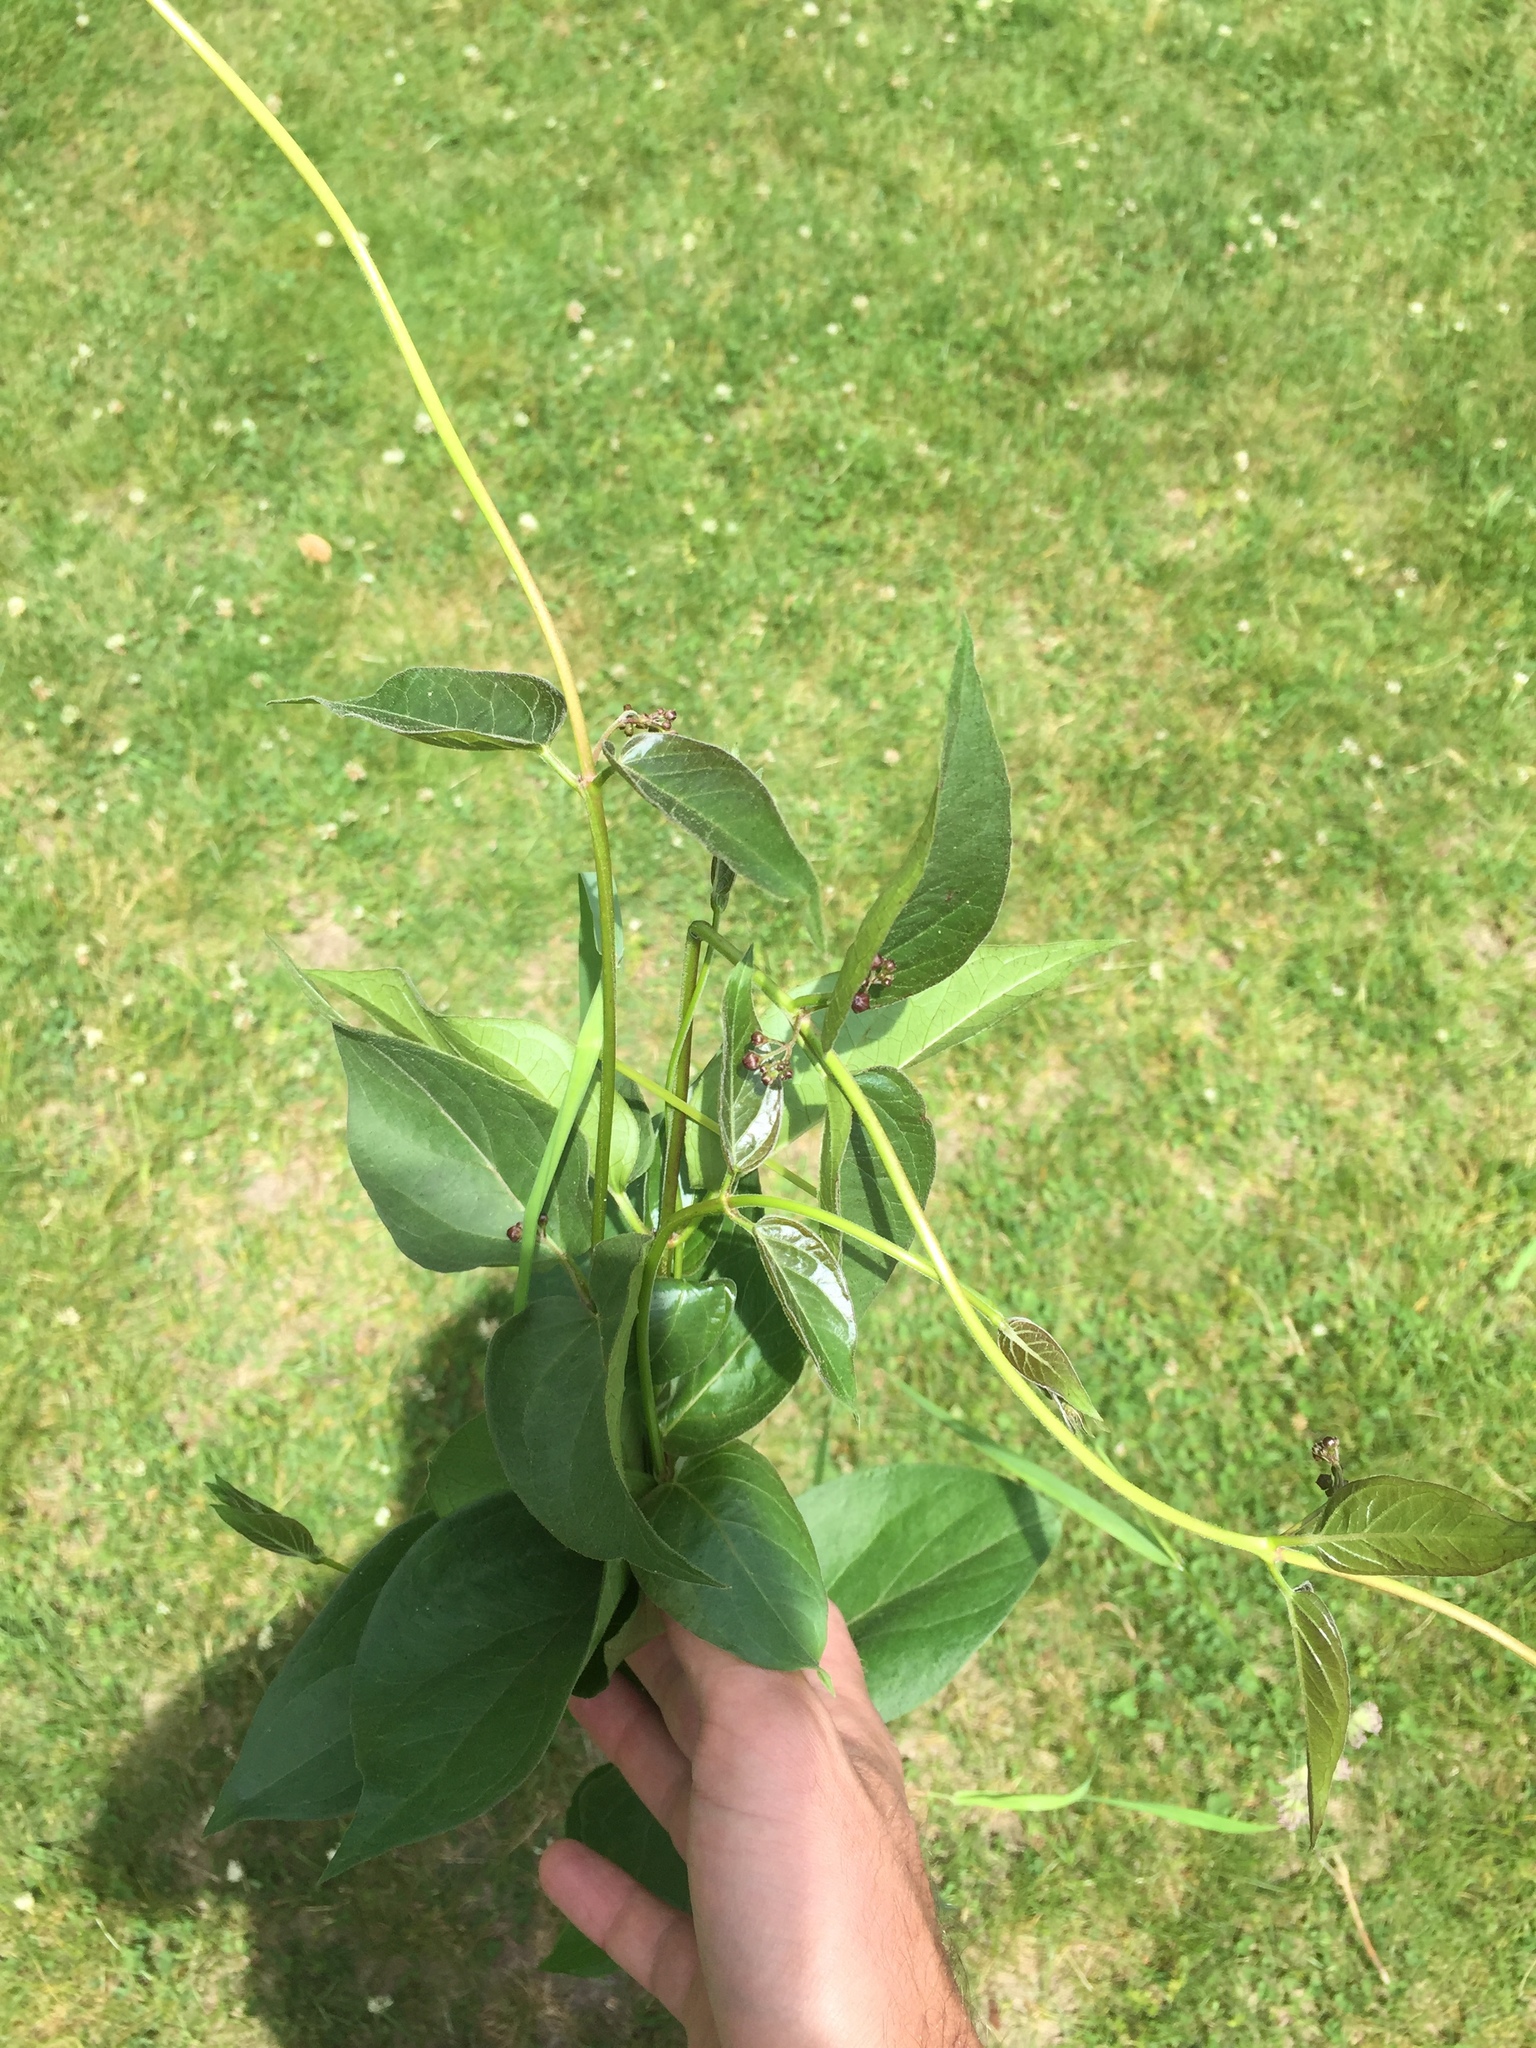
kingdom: Plantae
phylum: Tracheophyta
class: Magnoliopsida
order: Gentianales
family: Apocynaceae
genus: Vincetoxicum
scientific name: Vincetoxicum nigrum
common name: Black swallow-wort
